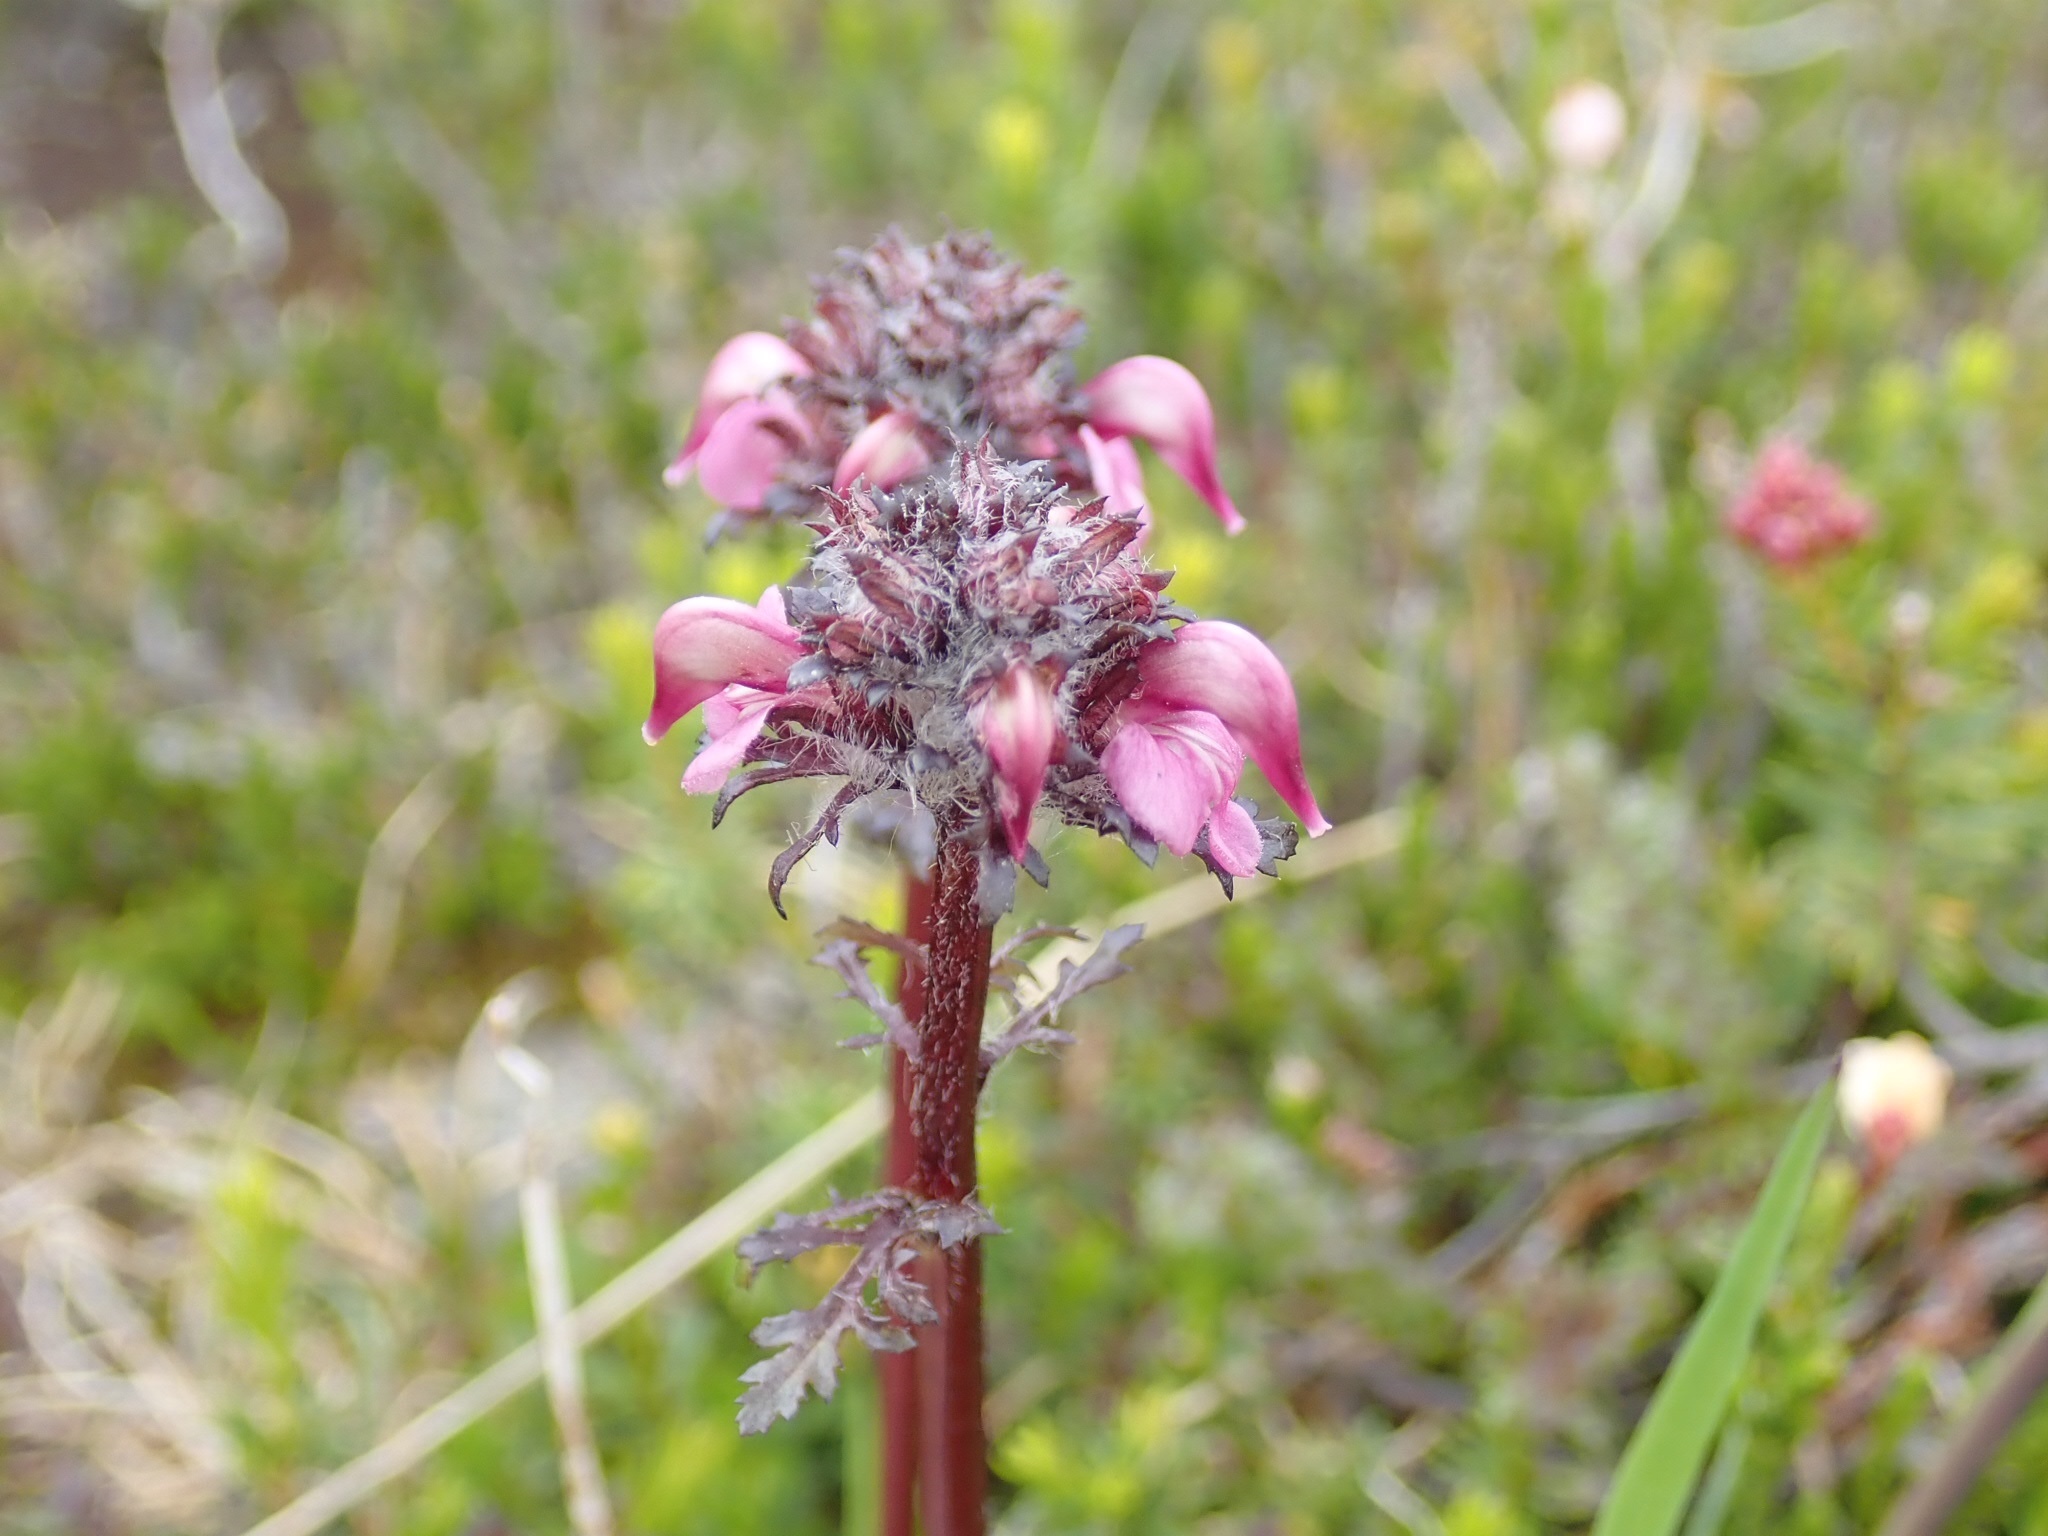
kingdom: Plantae
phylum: Tracheophyta
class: Magnoliopsida
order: Lamiales
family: Orobanchaceae
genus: Pedicularis
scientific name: Pedicularis groenlandica
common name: Elephant's-head
